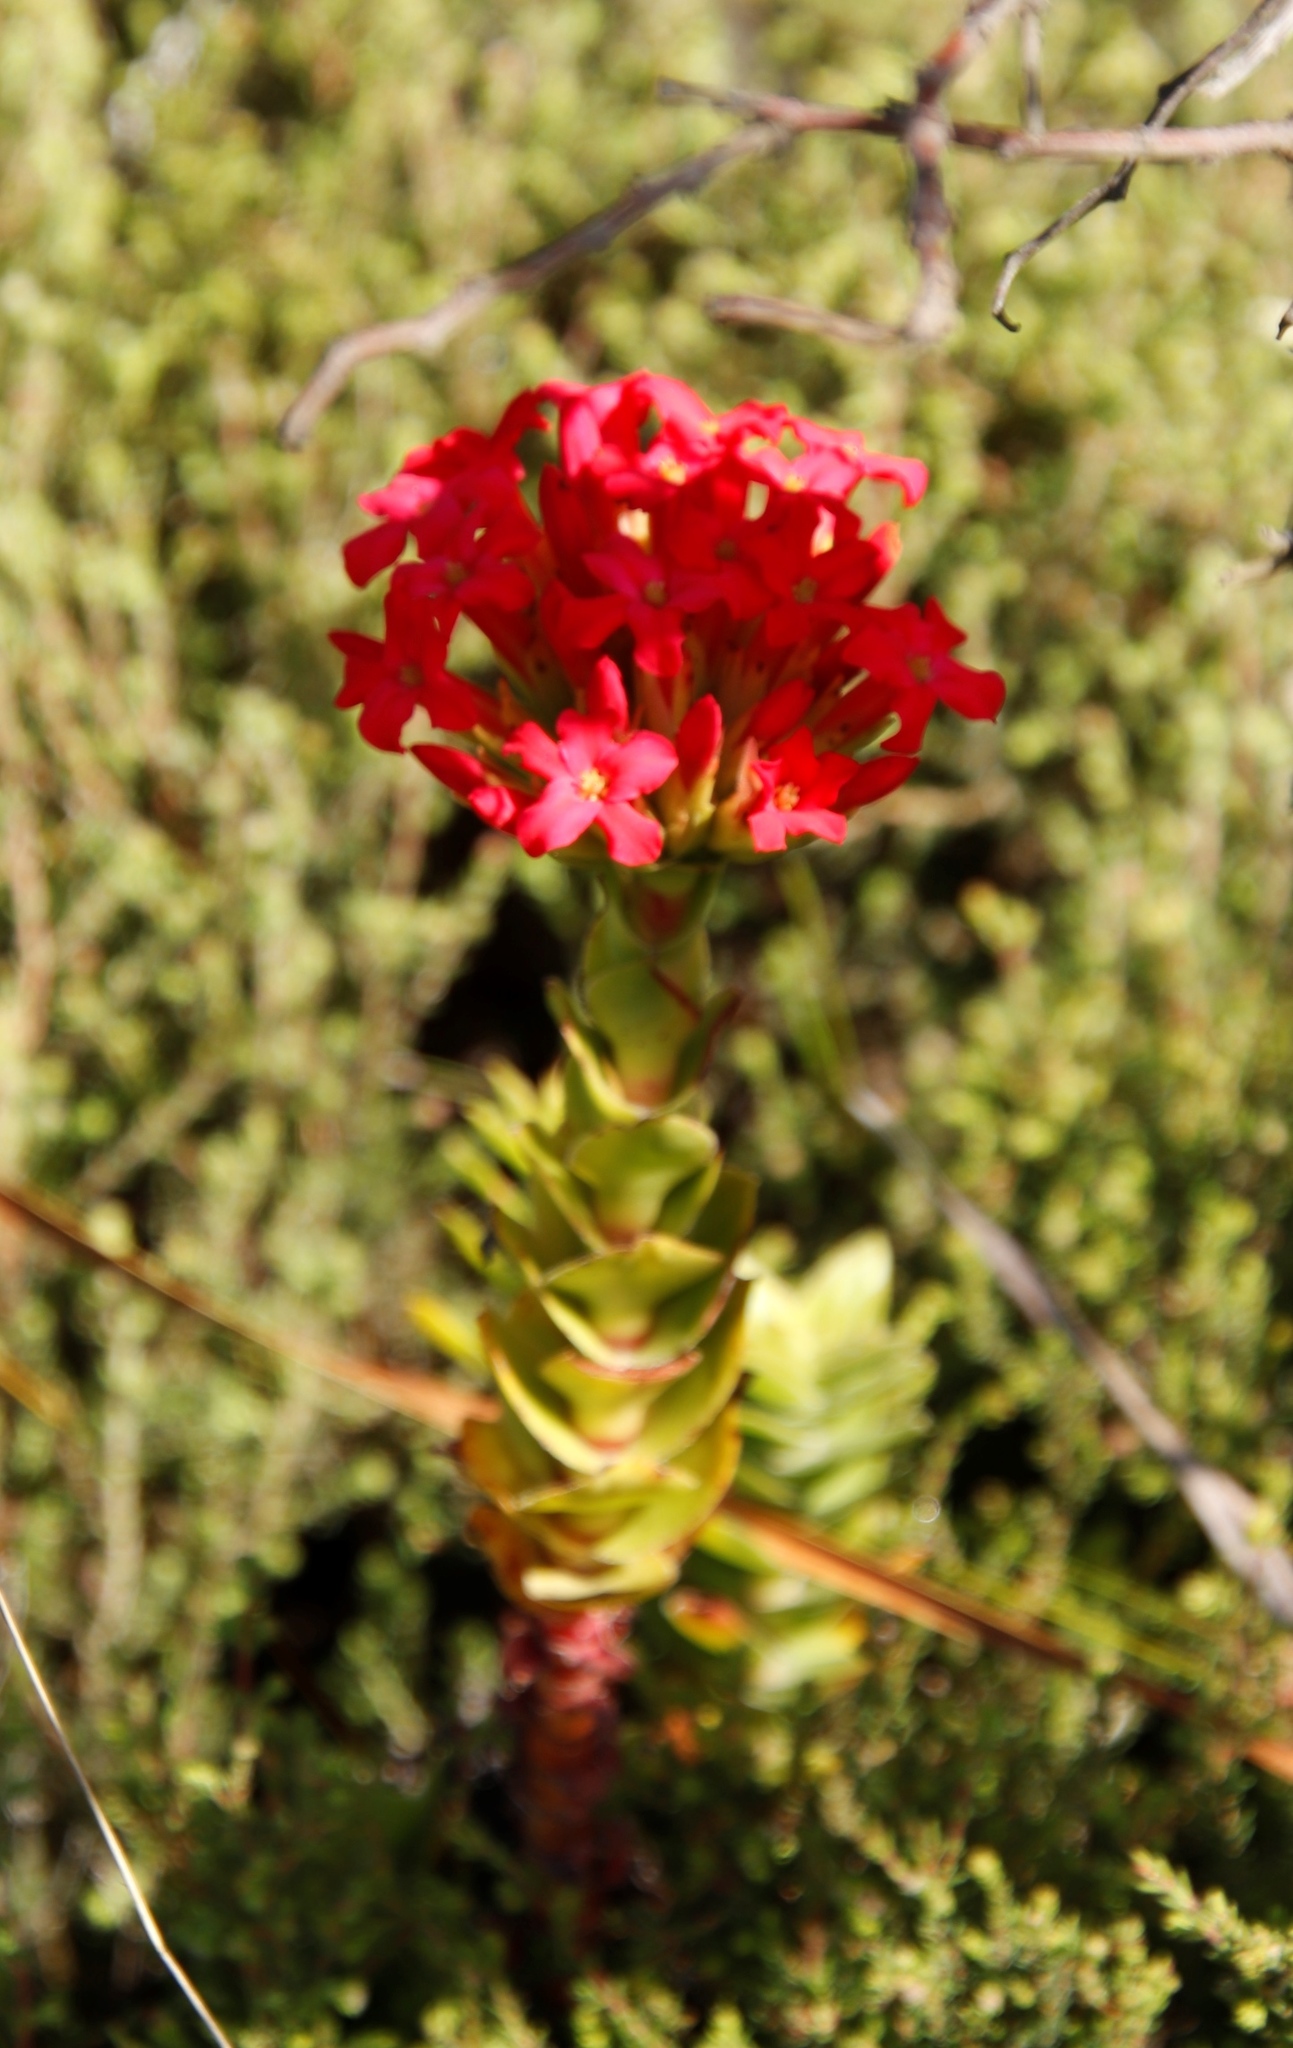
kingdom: Plantae
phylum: Tracheophyta
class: Magnoliopsida
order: Saxifragales
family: Crassulaceae
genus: Crassula
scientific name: Crassula coccinea
